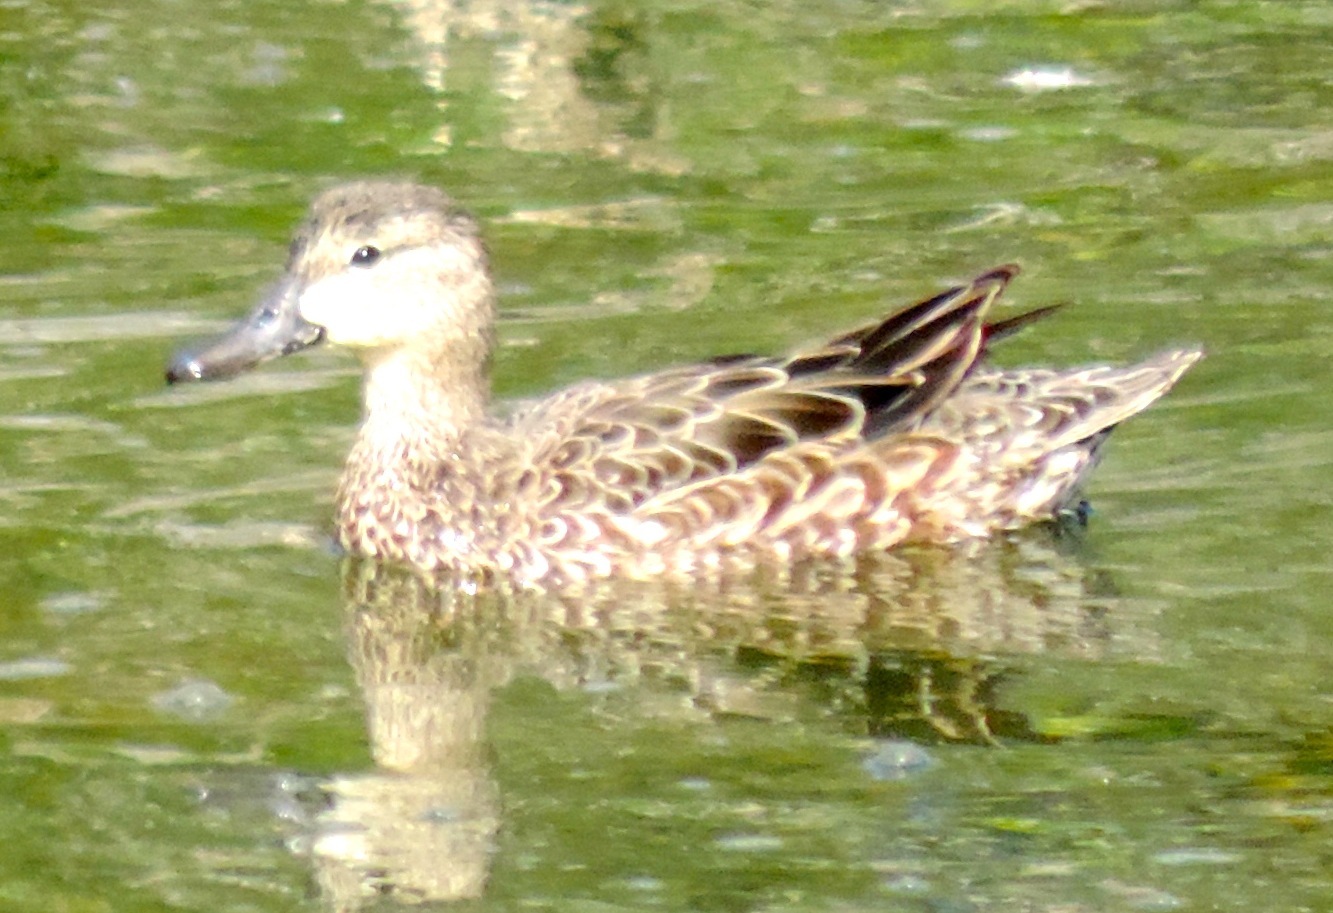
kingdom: Animalia
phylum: Chordata
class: Aves
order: Anseriformes
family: Anatidae
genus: Spatula
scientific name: Spatula discors
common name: Blue-winged teal
